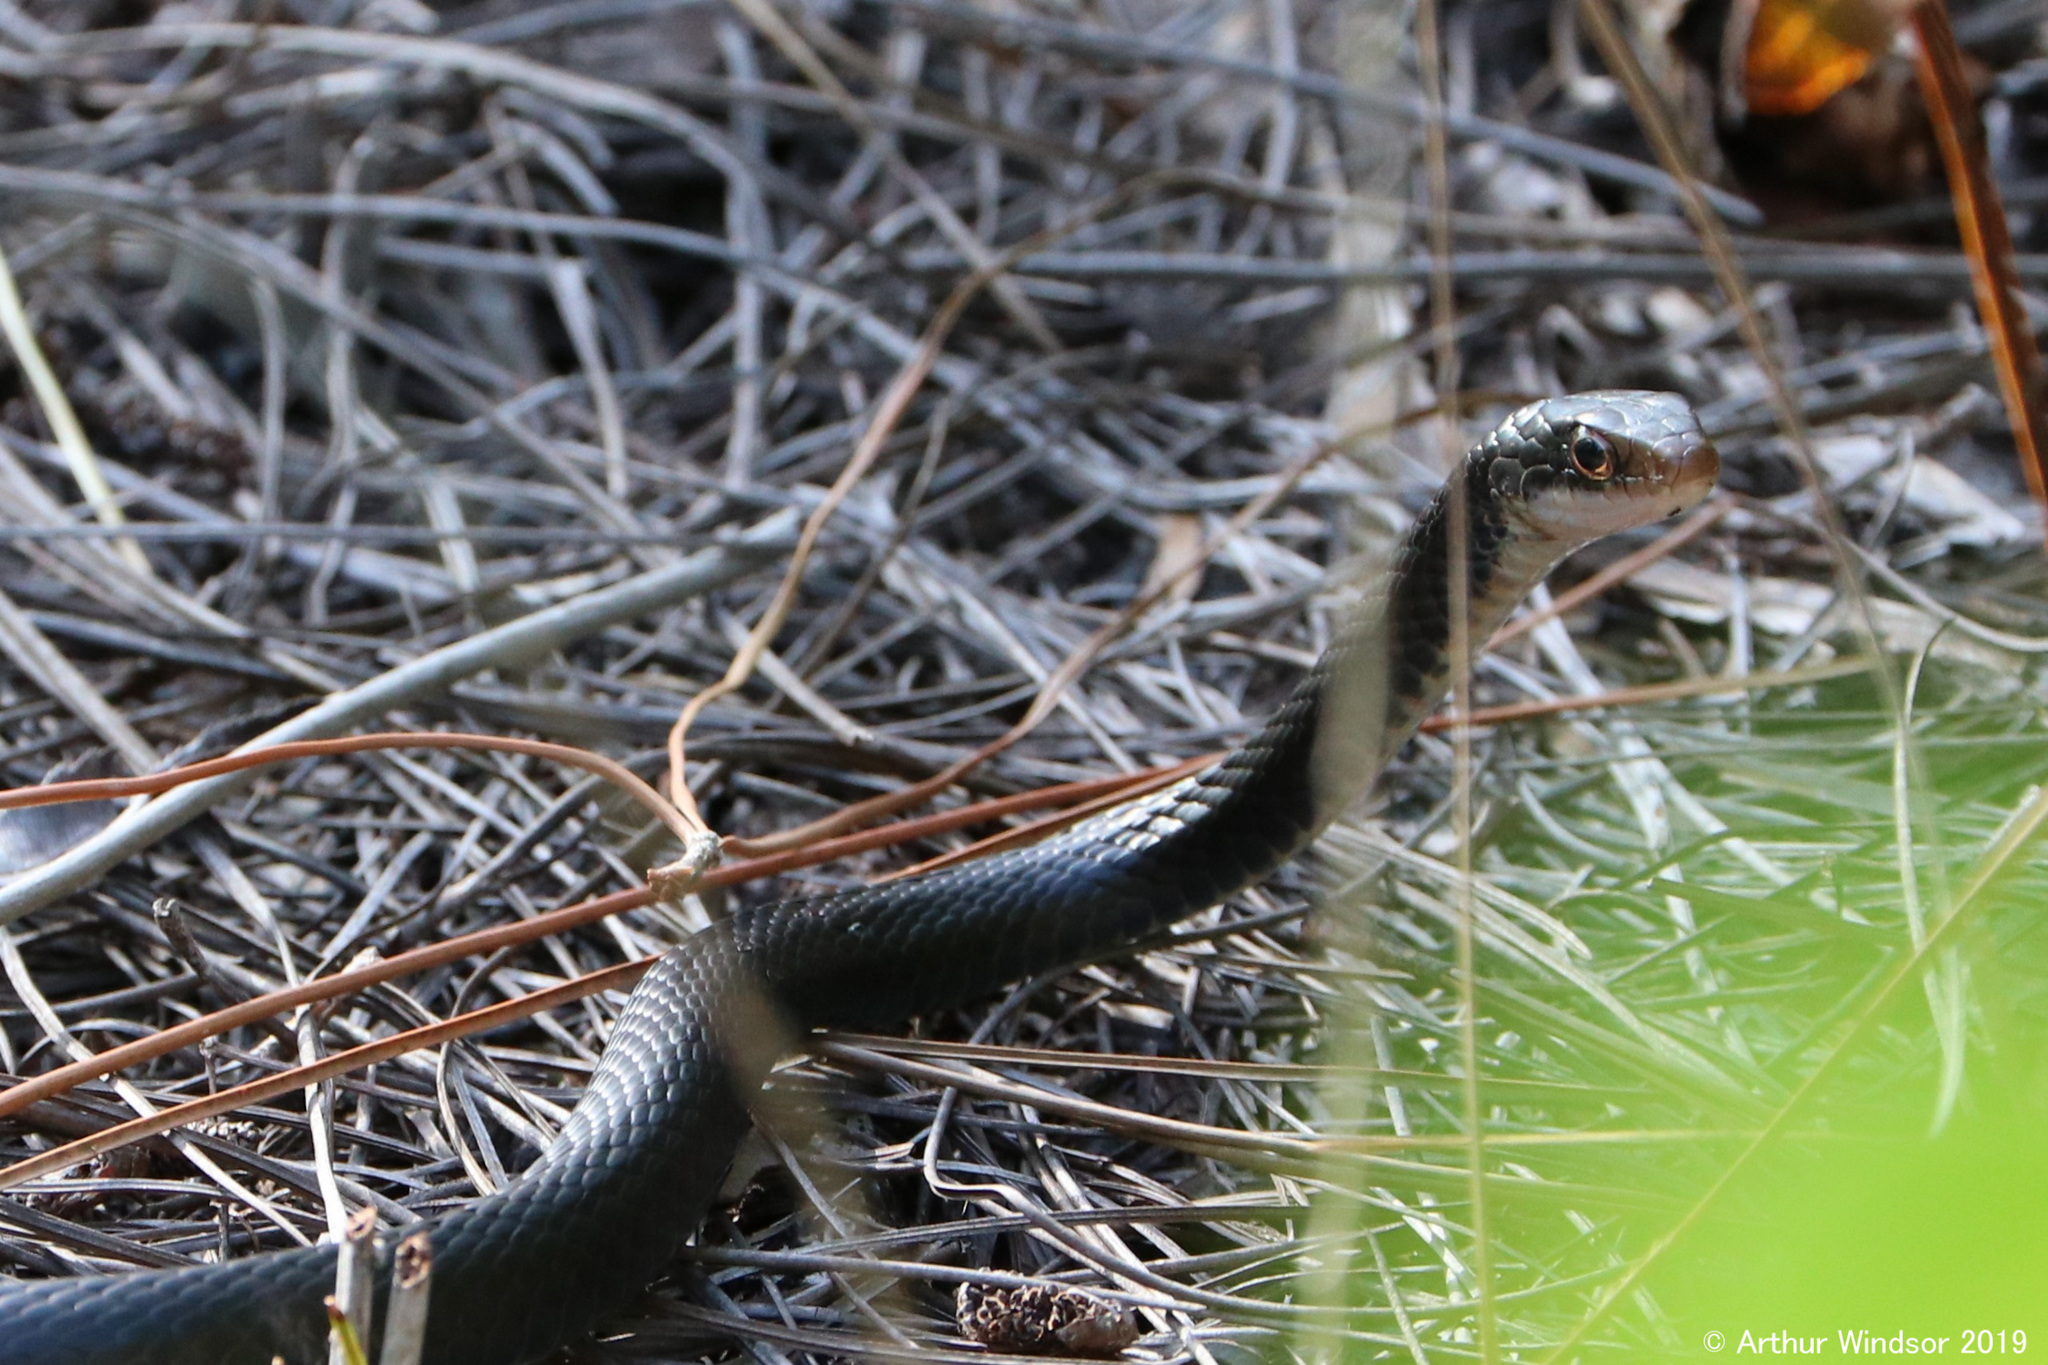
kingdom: Animalia
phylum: Chordata
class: Squamata
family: Colubridae
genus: Coluber
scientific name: Coluber constrictor
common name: Eastern racer
